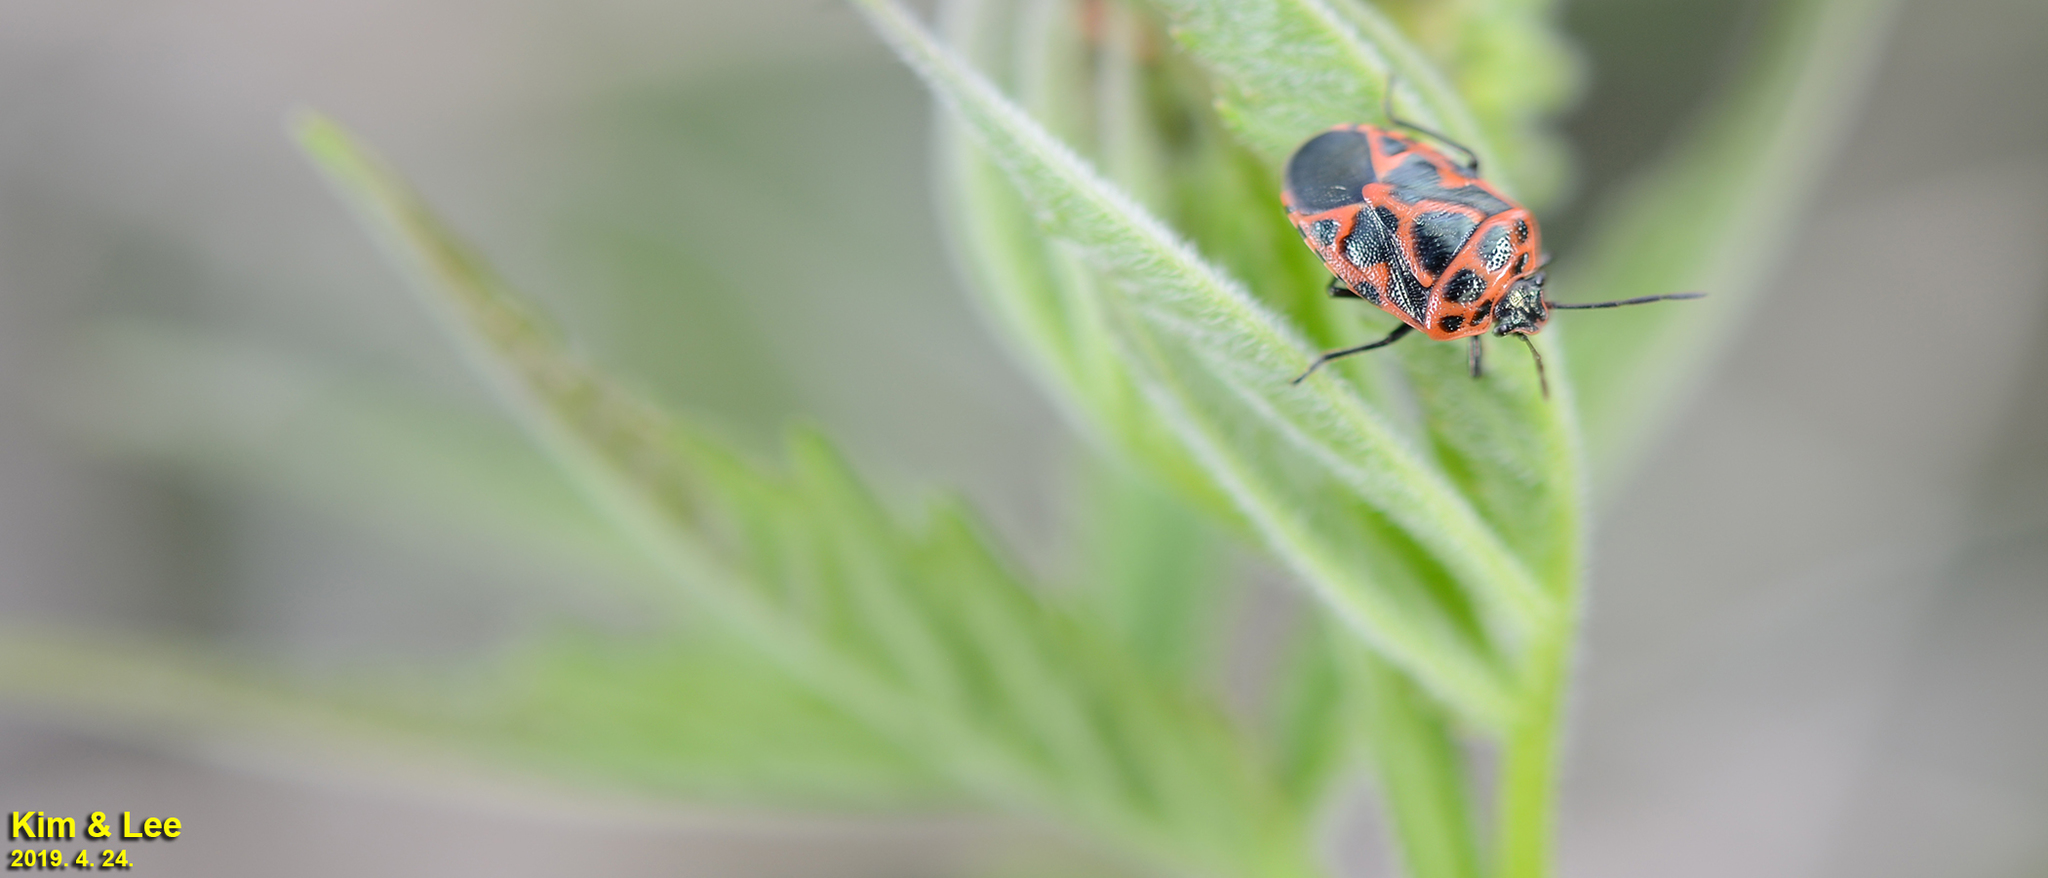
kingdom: Animalia
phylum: Arthropoda
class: Insecta
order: Hemiptera
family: Pentatomidae
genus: Eurydema
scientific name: Eurydema dominulus
